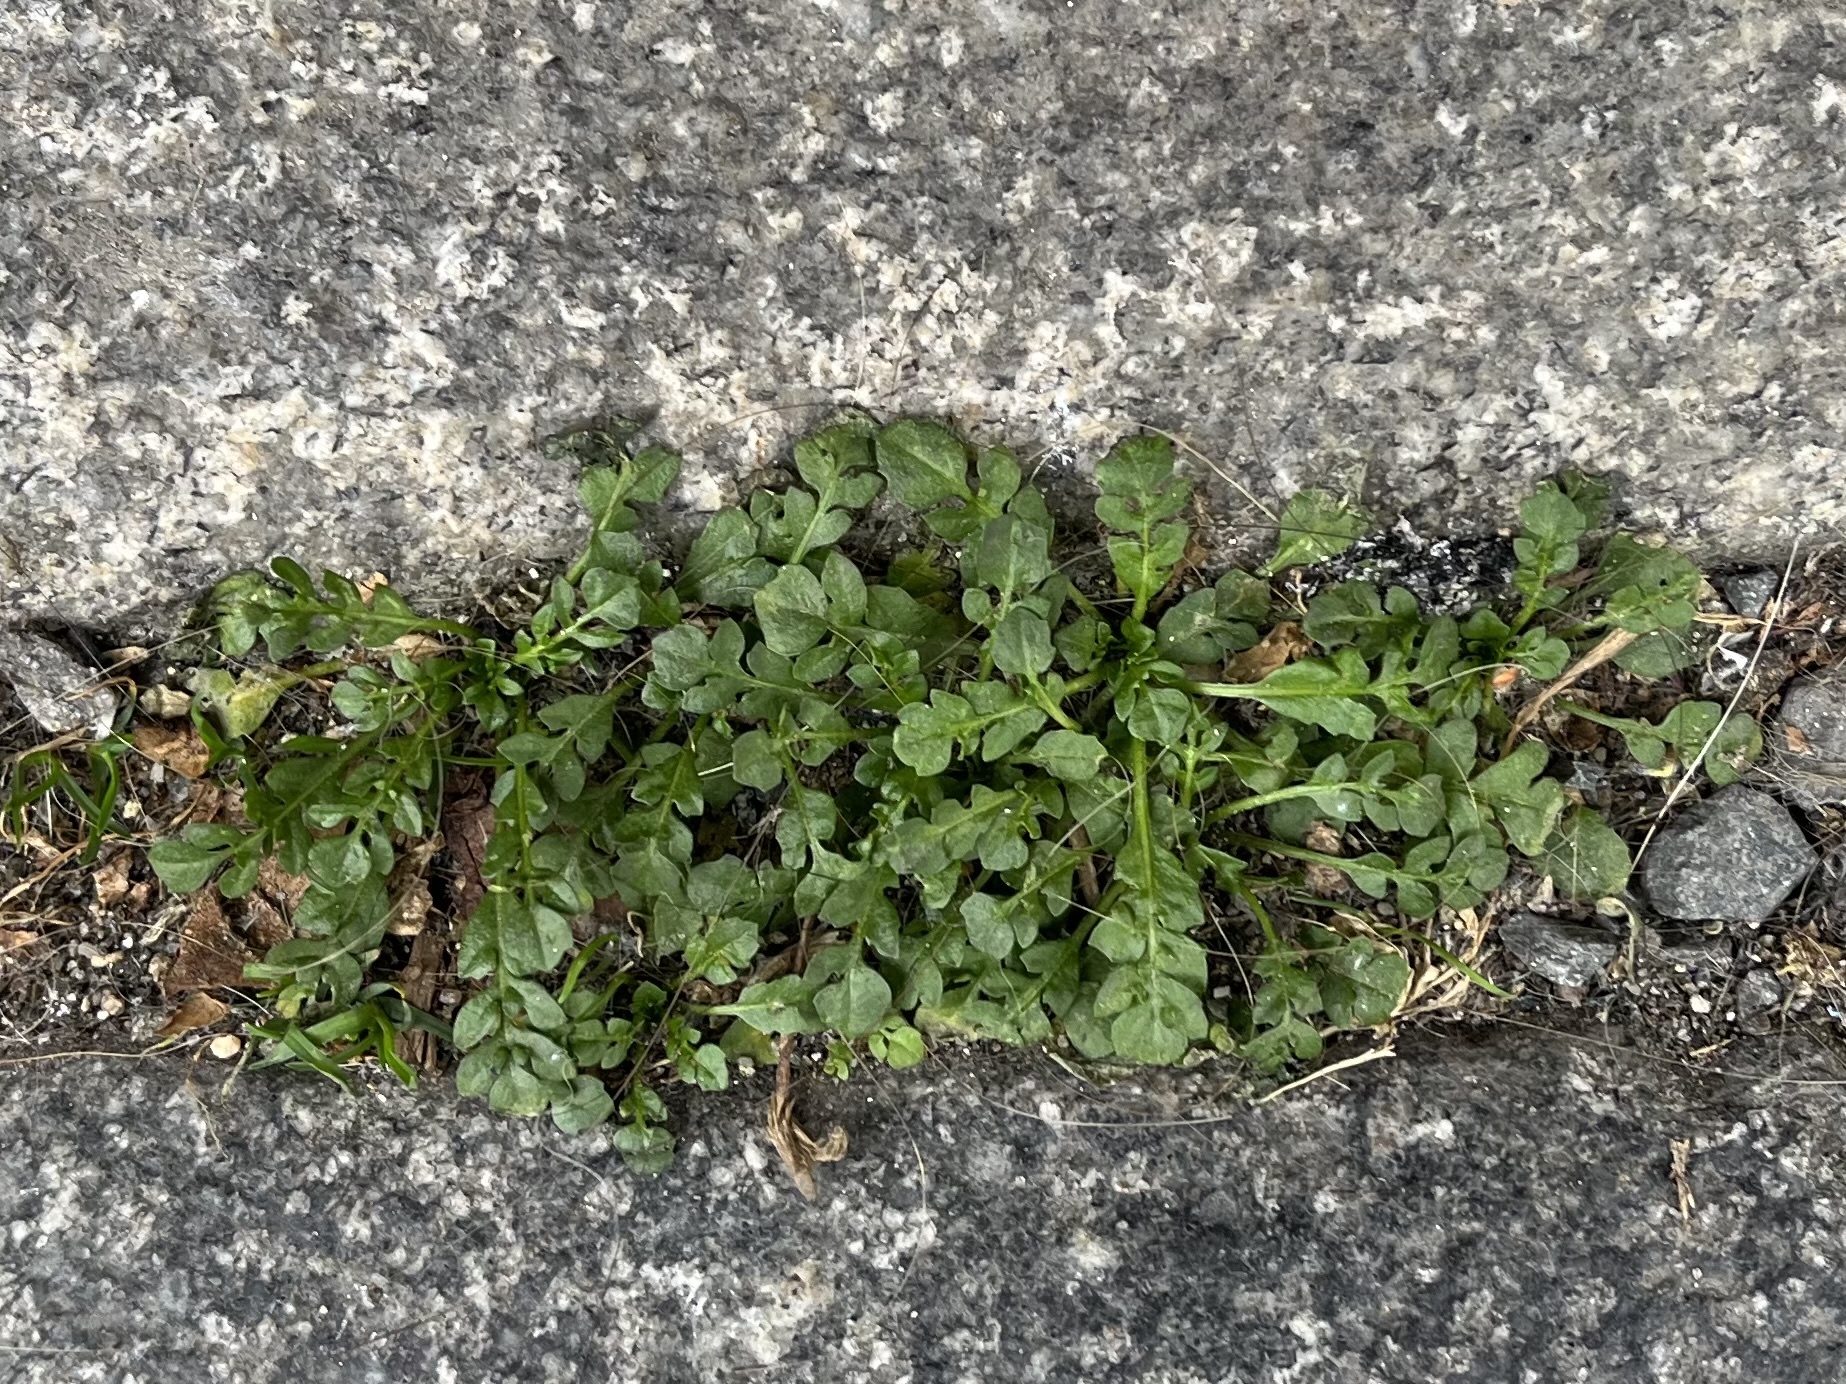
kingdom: Plantae
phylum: Tracheophyta
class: Magnoliopsida
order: Brassicales
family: Brassicaceae
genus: Capsella
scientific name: Capsella bursa-pastoris
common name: Shepherd's purse
